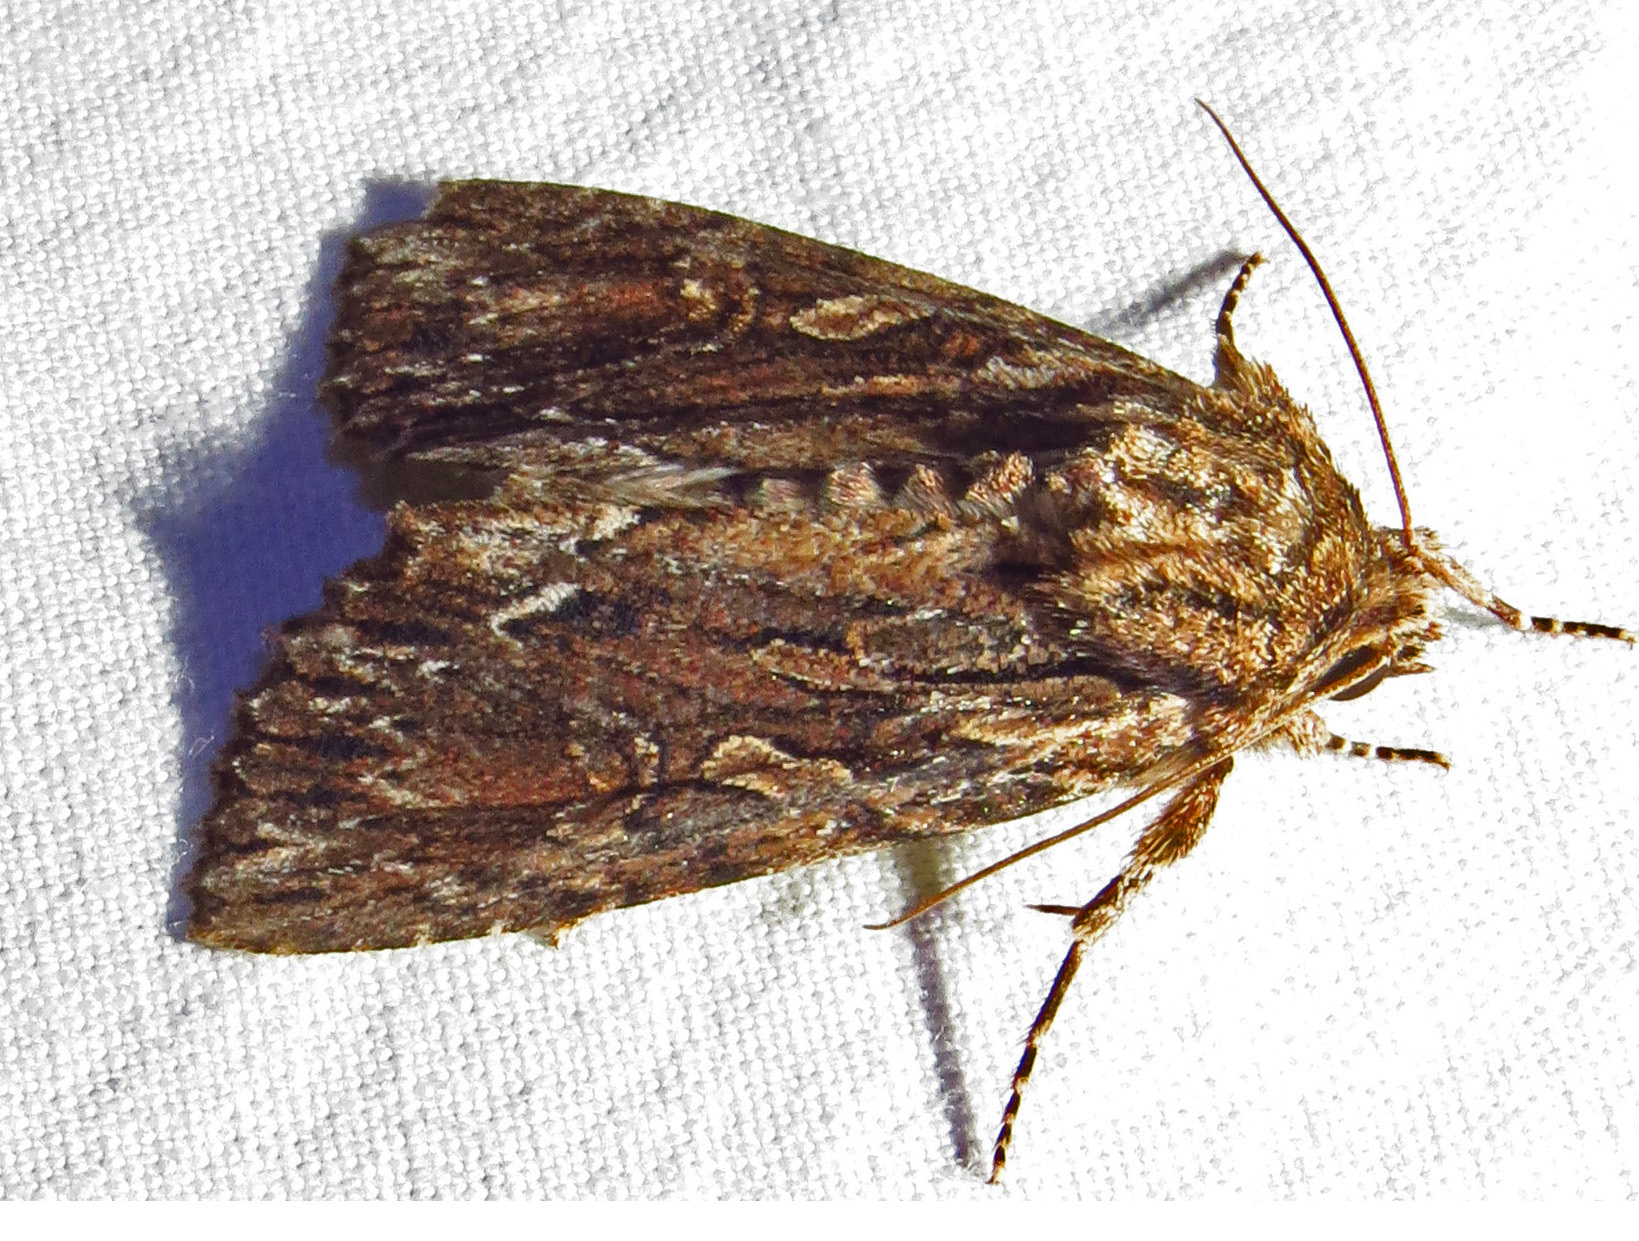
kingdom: Animalia
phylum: Arthropoda
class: Insecta
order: Lepidoptera
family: Noctuidae
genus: Achatia
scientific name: Achatia confusa
